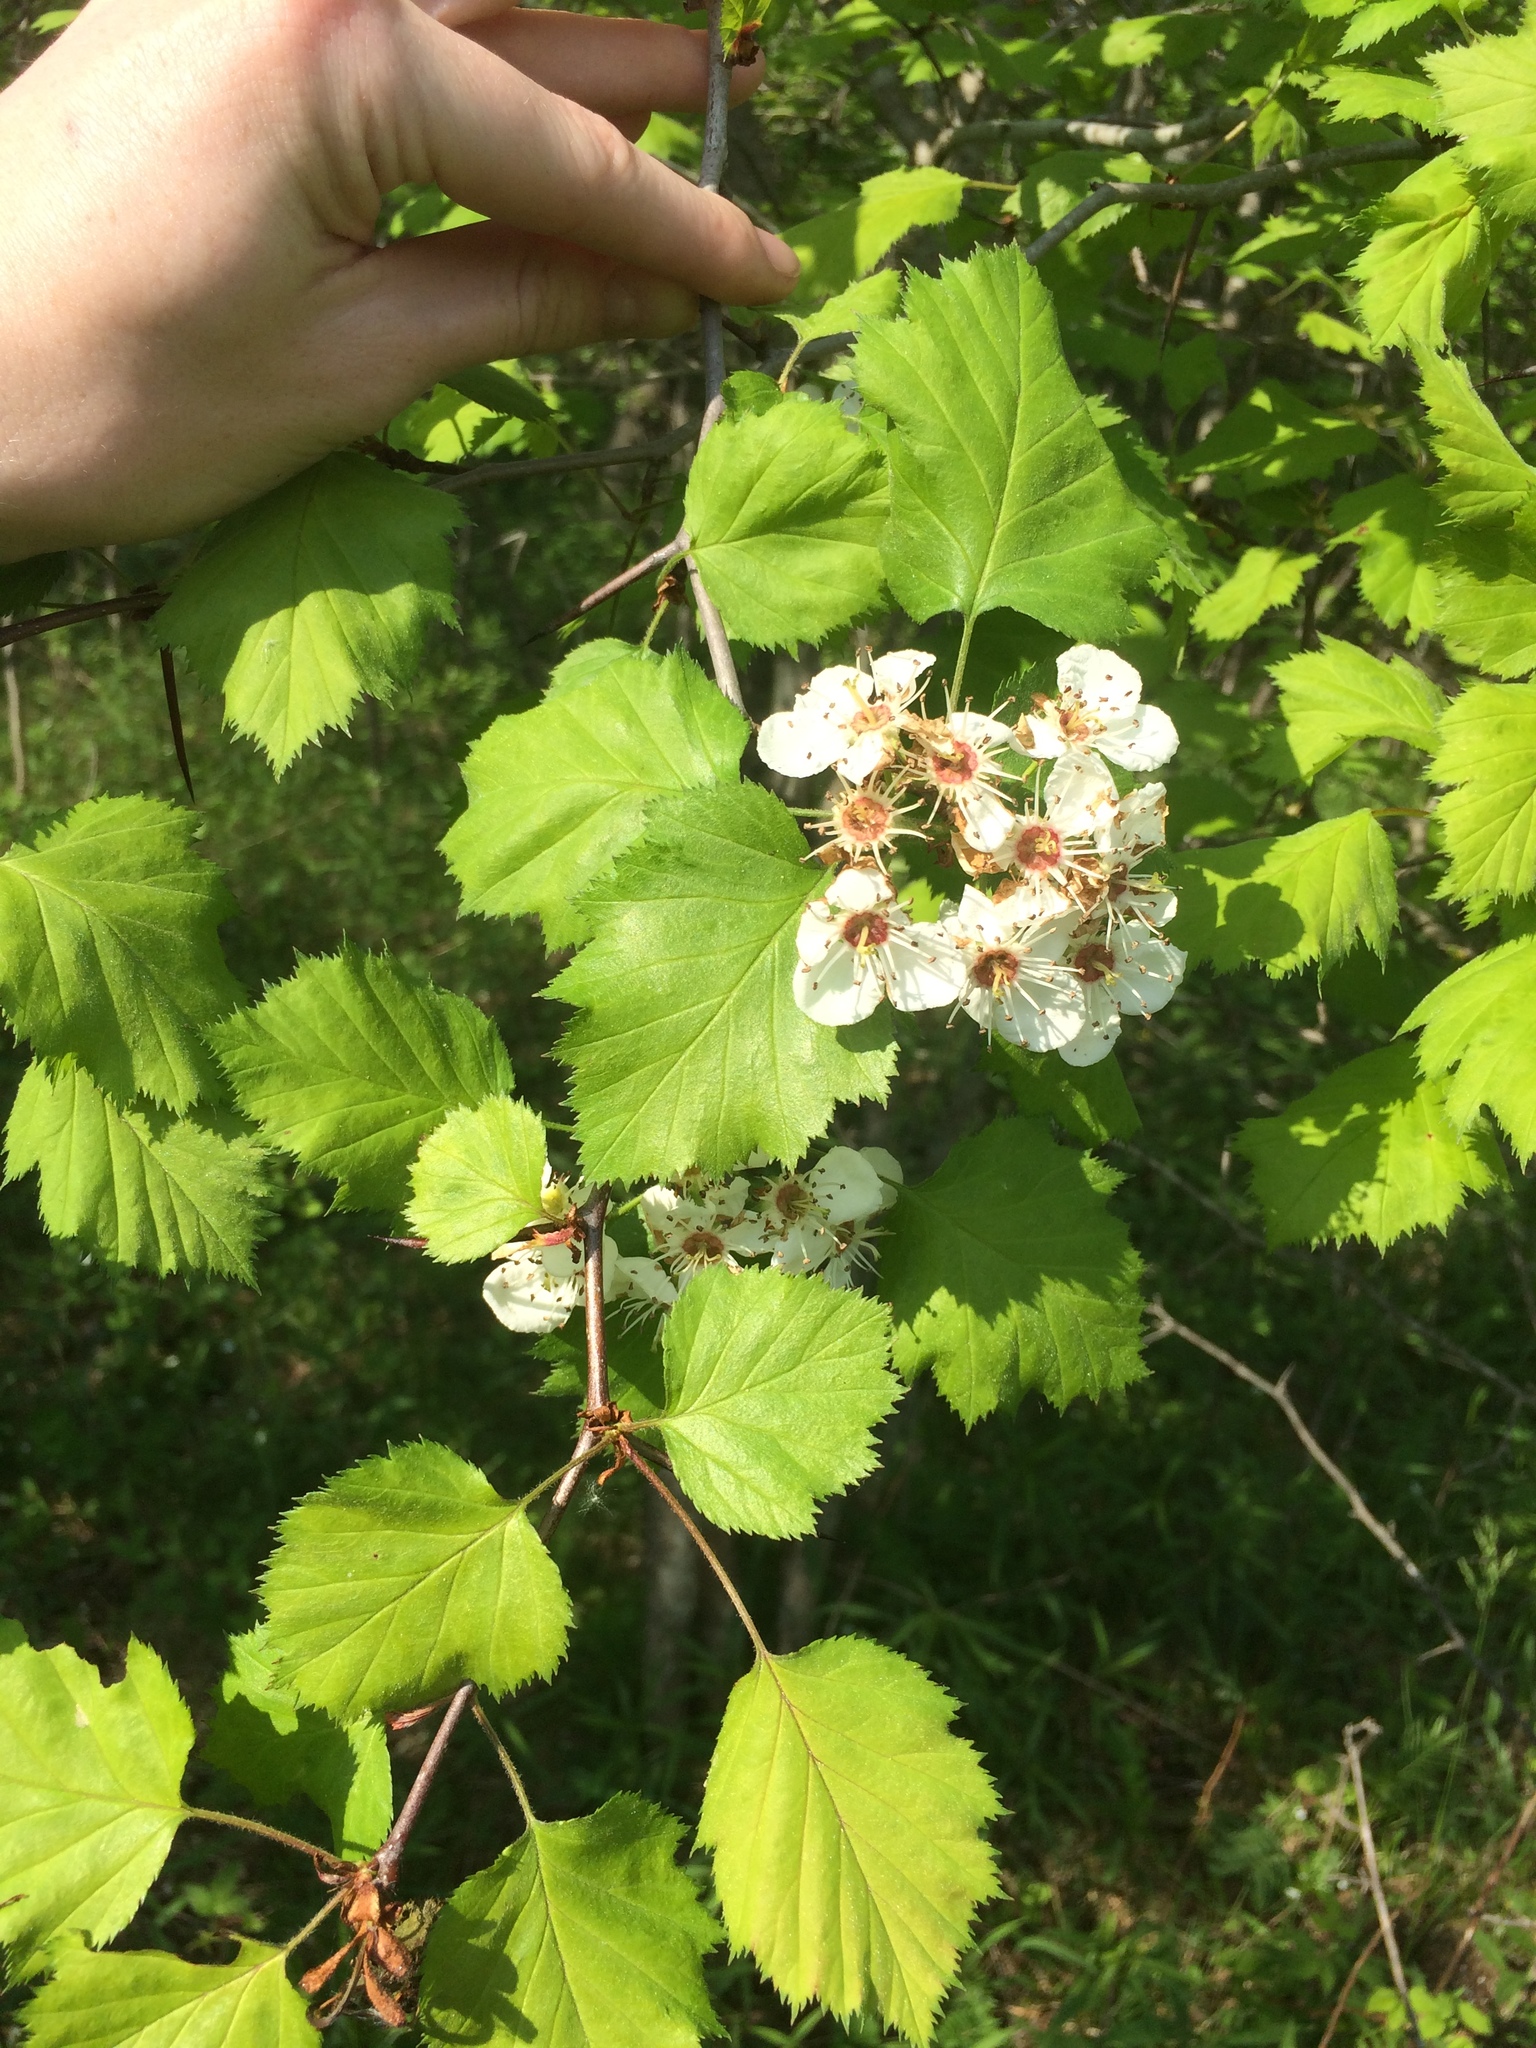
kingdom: Plantae
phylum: Tracheophyta
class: Magnoliopsida
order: Rosales
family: Rosaceae
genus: Crataegus
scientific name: Crataegus coccinioides
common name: Large-flowered cockspurthorn
